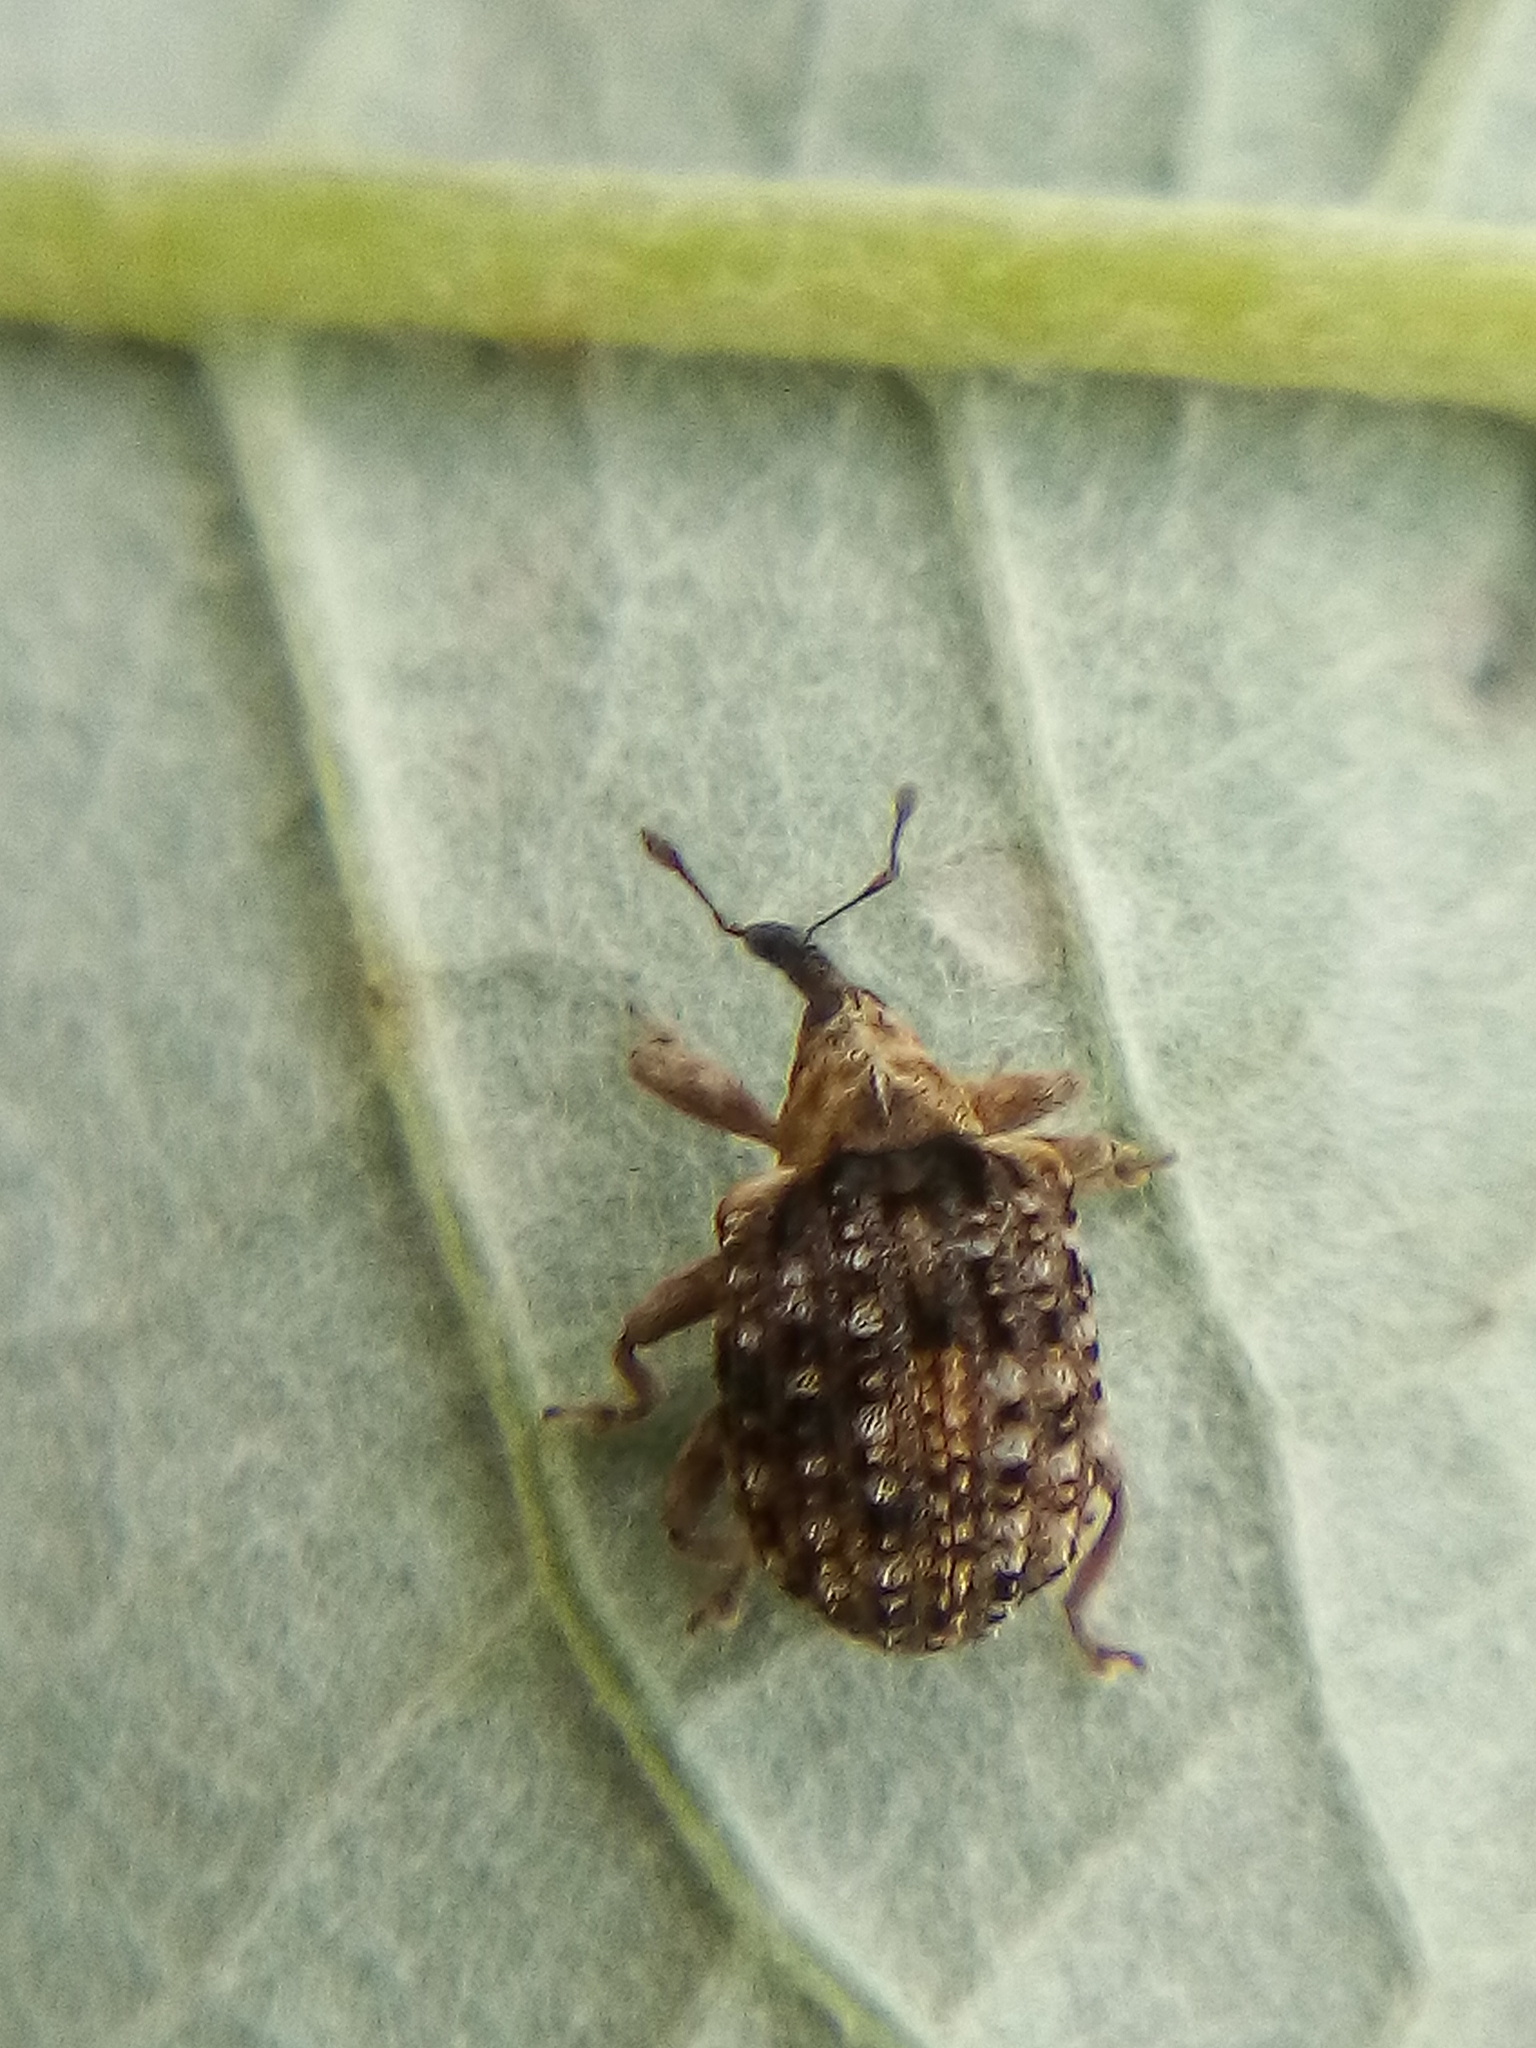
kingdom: Animalia
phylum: Arthropoda
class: Insecta
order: Coleoptera
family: Curculionidae
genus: Cleopus
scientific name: Cleopus japonicus
